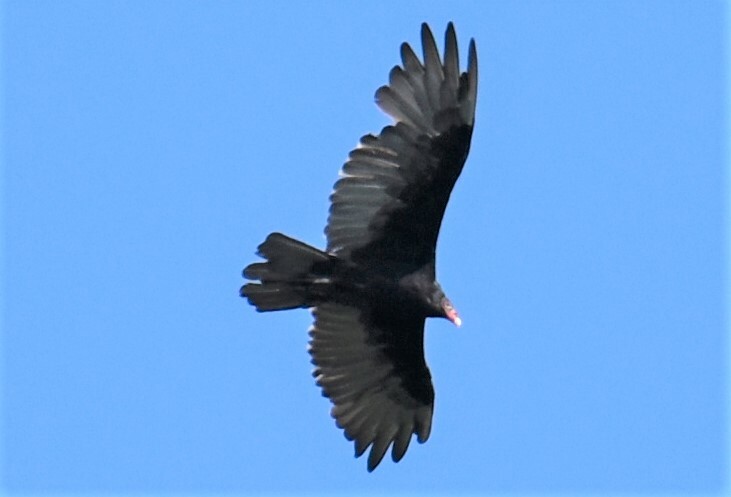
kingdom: Animalia
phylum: Chordata
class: Aves
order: Accipitriformes
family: Cathartidae
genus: Cathartes
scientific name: Cathartes aura
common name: Turkey vulture
